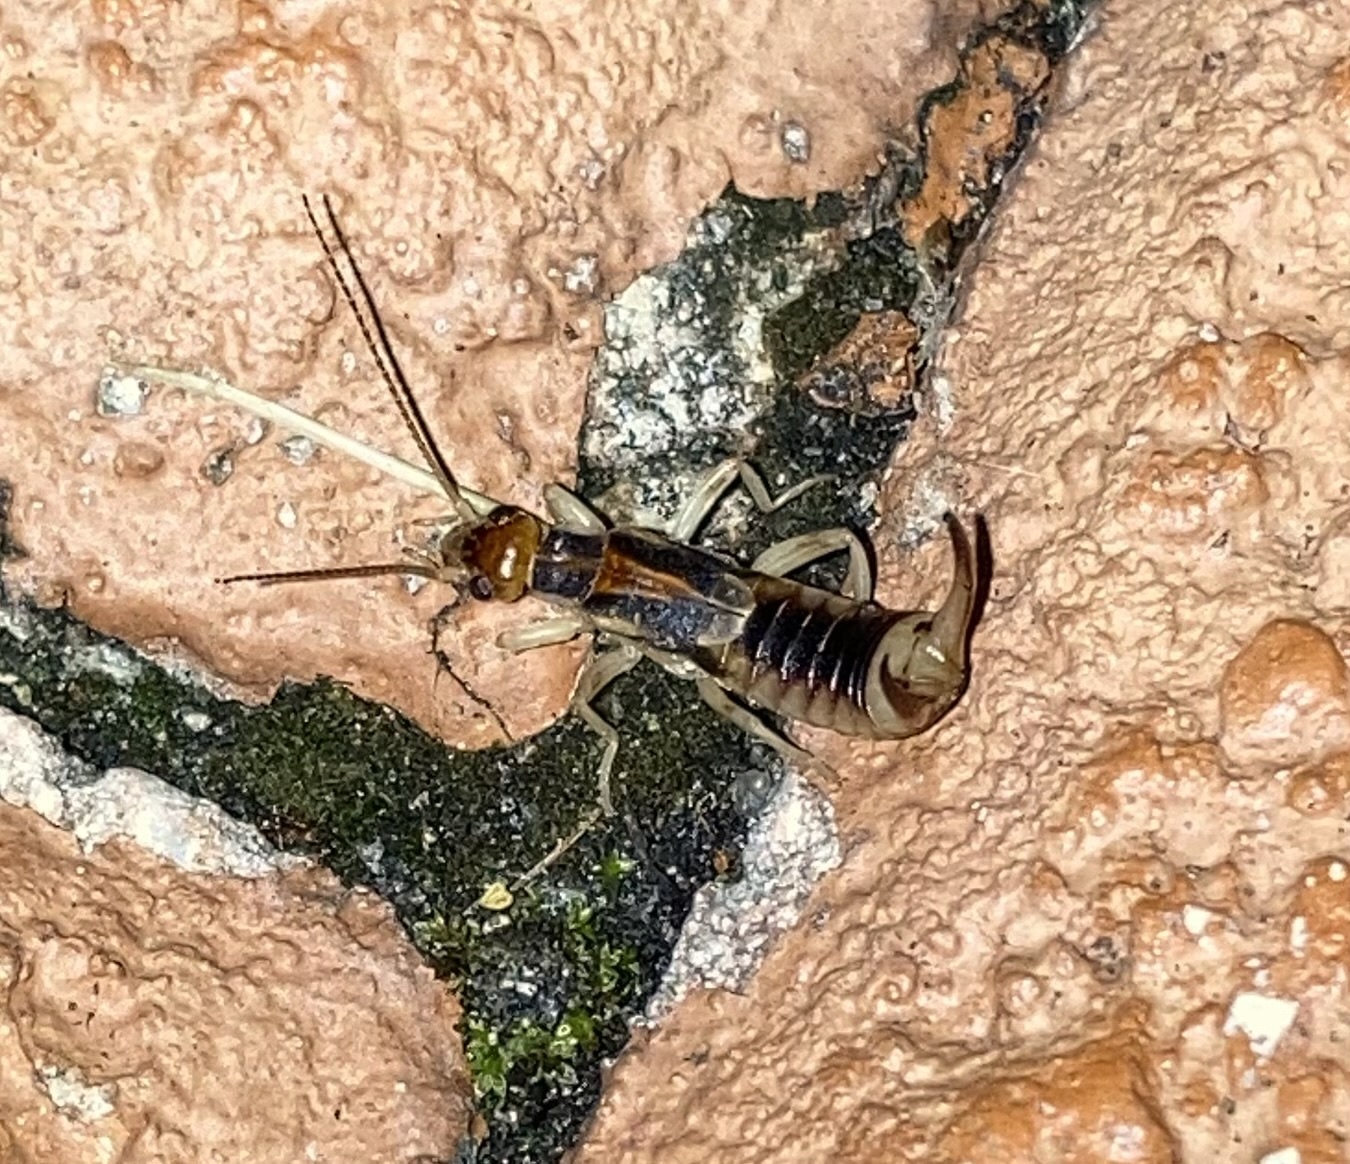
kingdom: Animalia
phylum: Arthropoda
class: Insecta
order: Dermaptera
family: Labiduridae
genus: Labidura
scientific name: Labidura riparia
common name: Striped earwig
